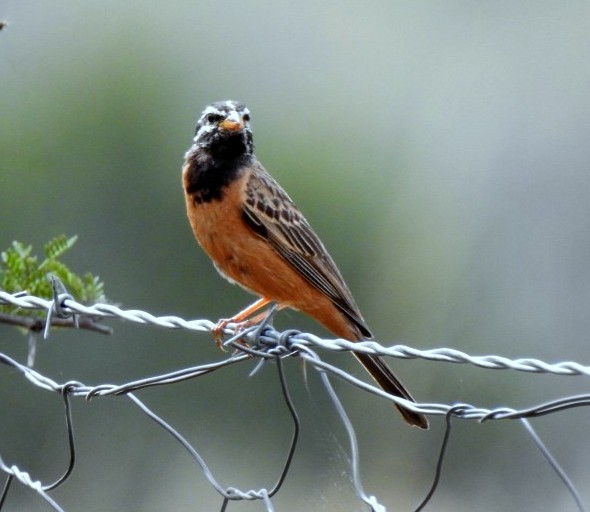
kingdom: Animalia
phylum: Chordata
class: Aves
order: Passeriformes
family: Emberizidae
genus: Emberiza
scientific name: Emberiza tahapisi
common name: Cinnamon-breasted bunting
